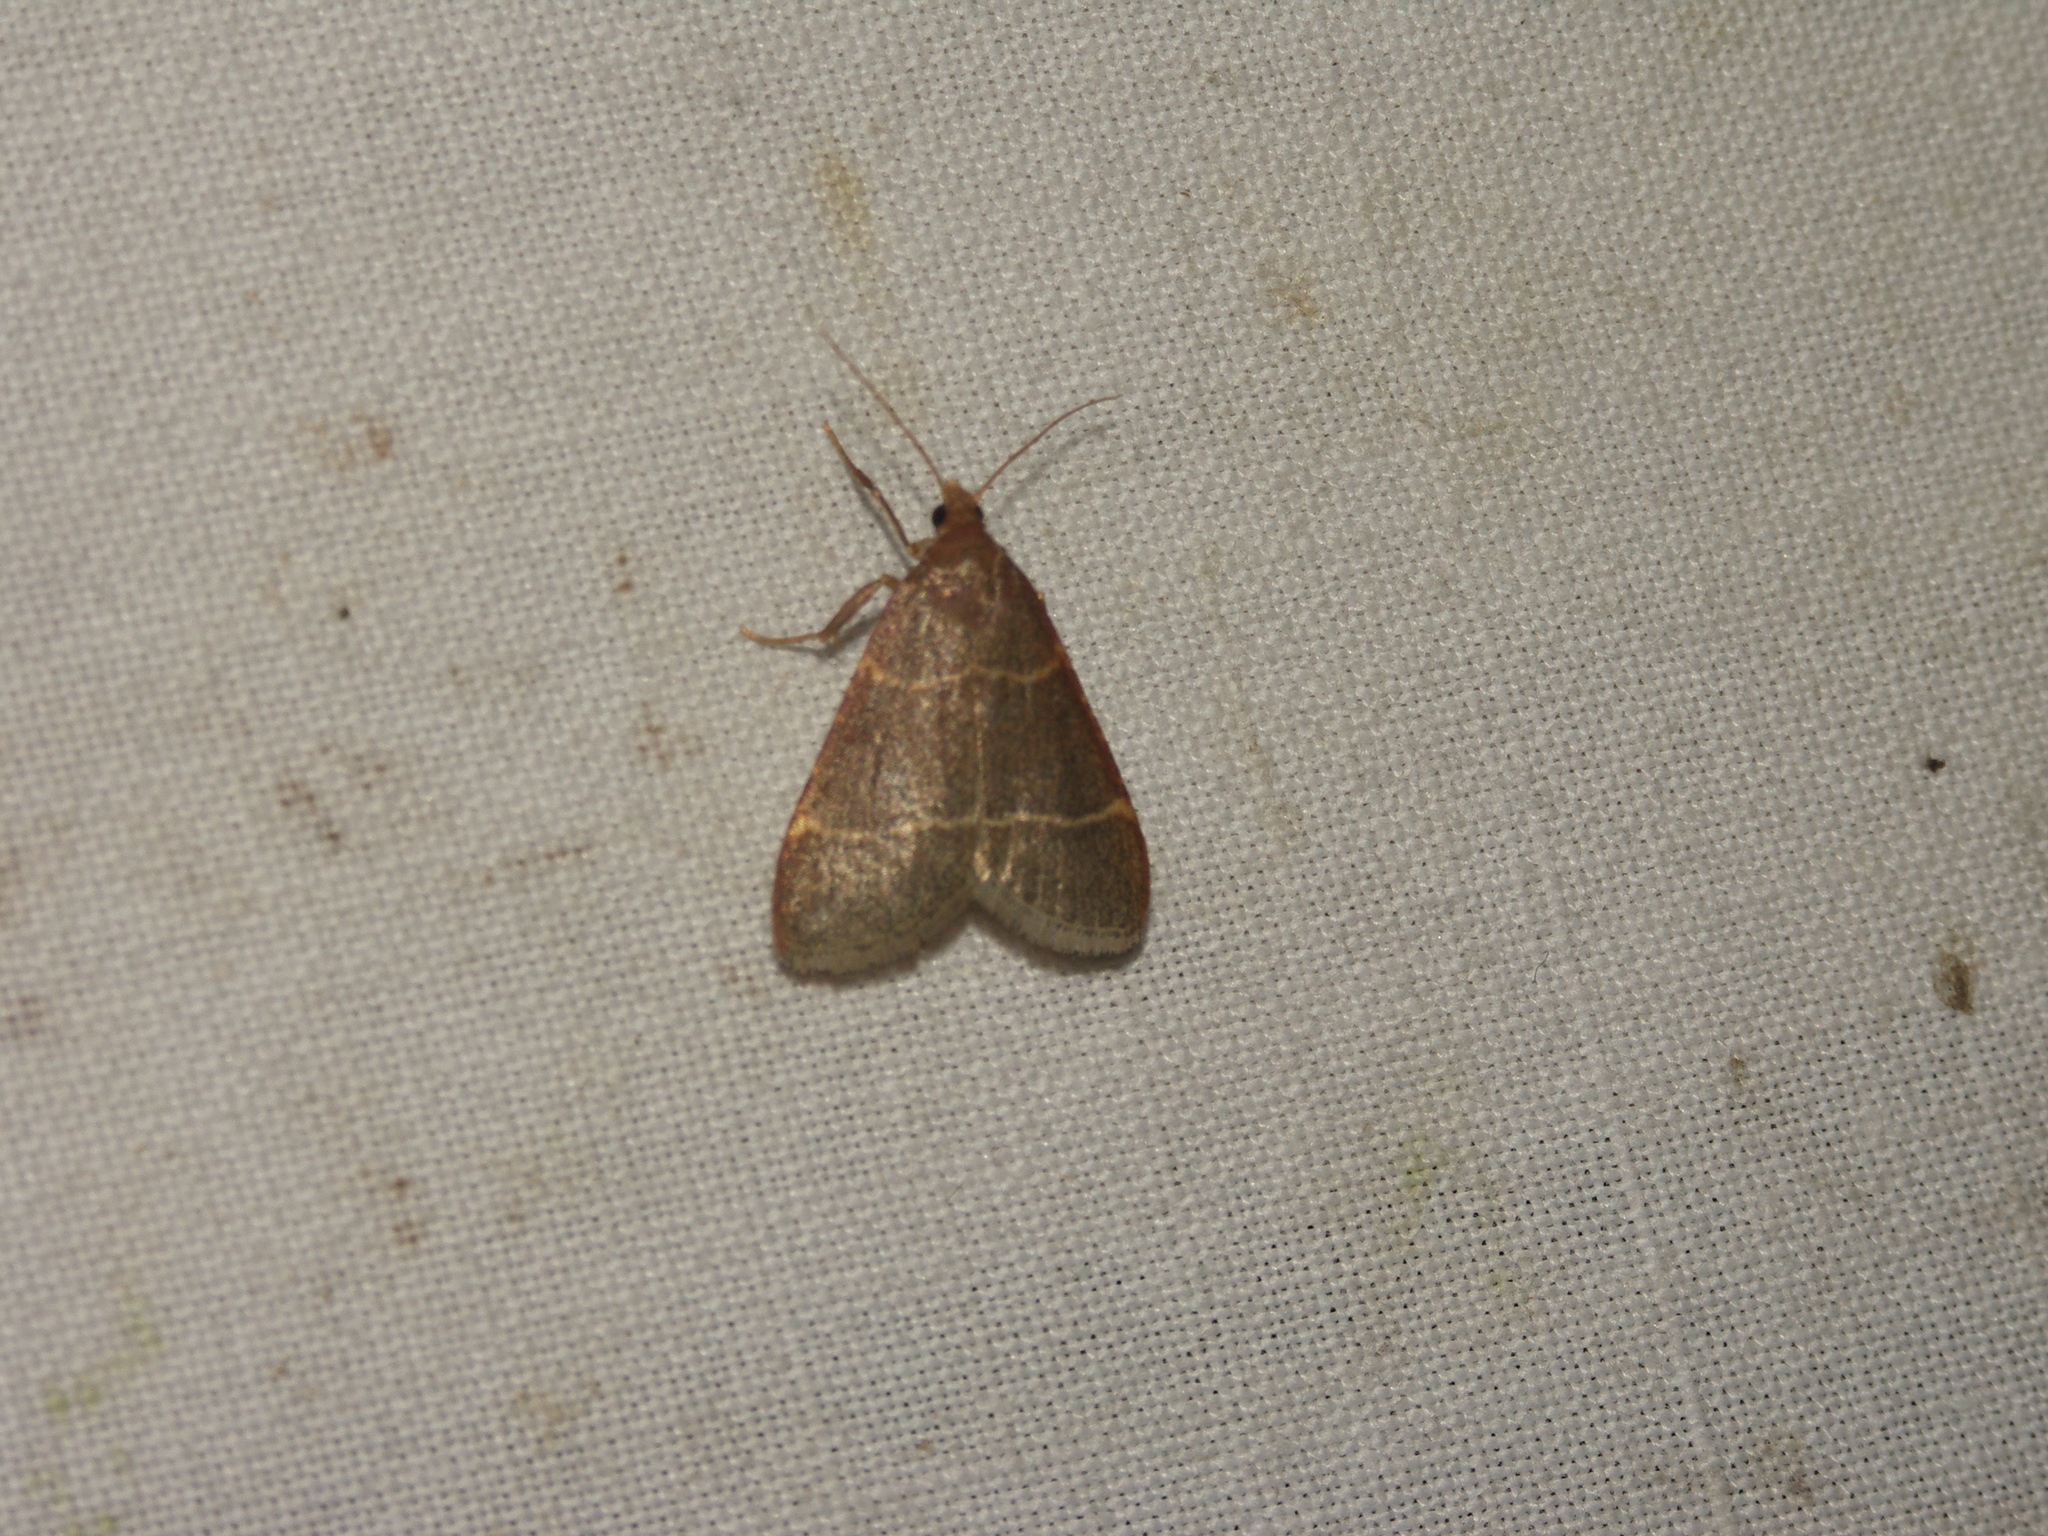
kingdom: Animalia
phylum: Arthropoda
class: Insecta
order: Lepidoptera
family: Pyralidae
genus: Hypsopygia
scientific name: Hypsopygia glaucinalis
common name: Double-striped tabby
